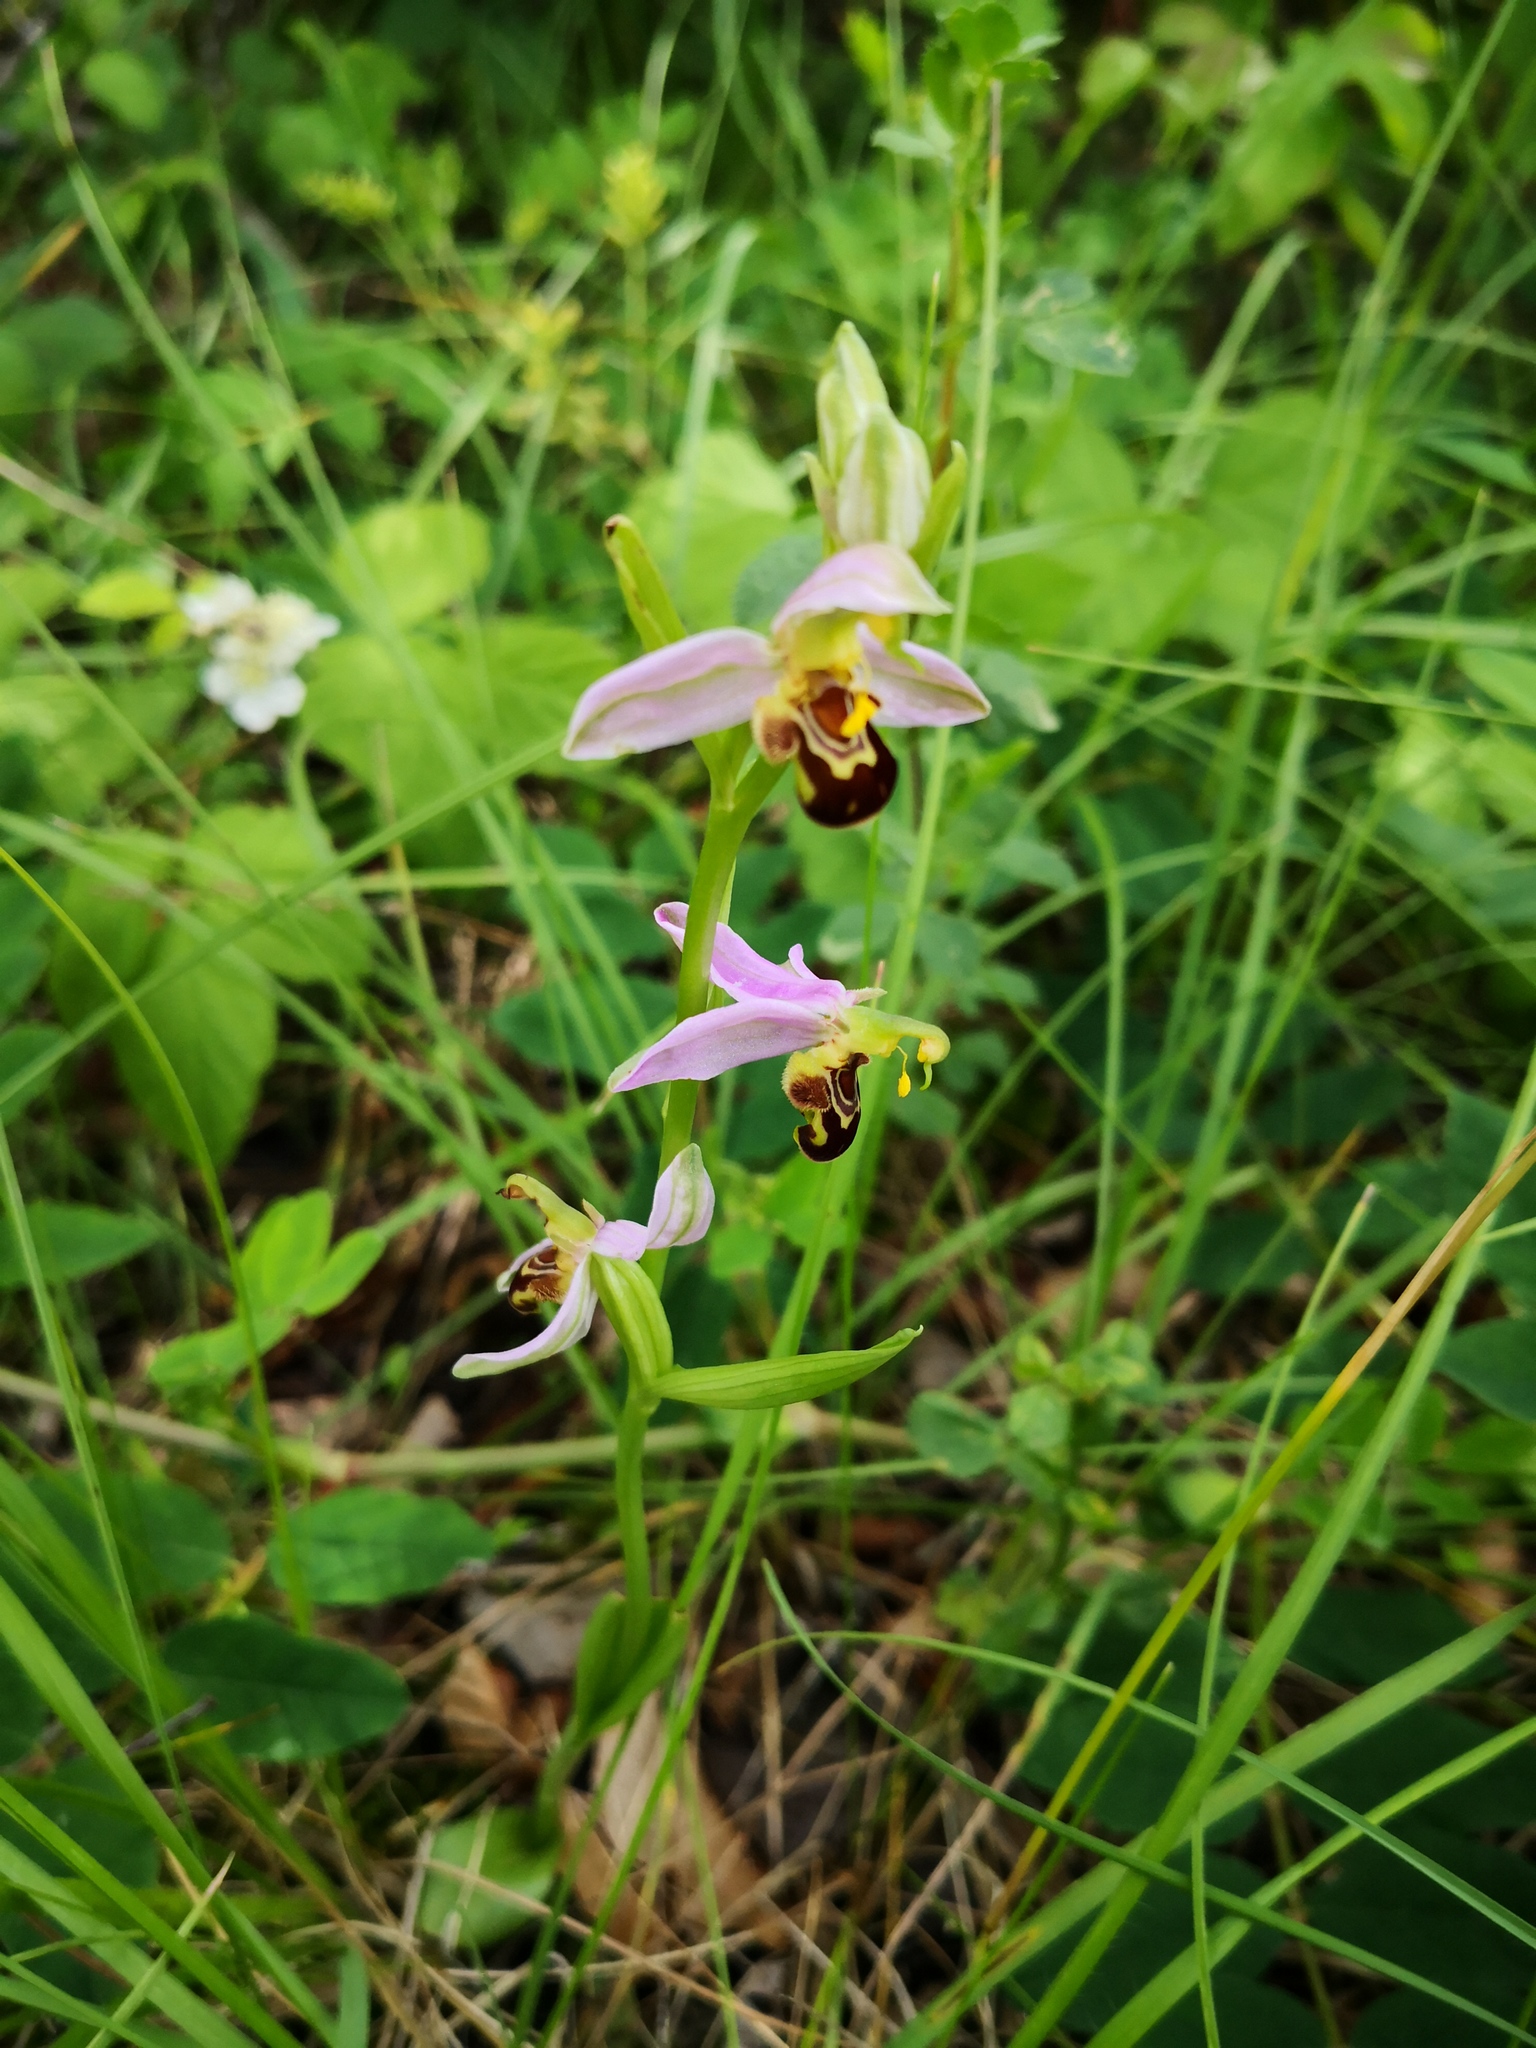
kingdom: Plantae
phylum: Tracheophyta
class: Liliopsida
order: Asparagales
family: Orchidaceae
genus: Ophrys
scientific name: Ophrys apifera
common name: Bee orchid
